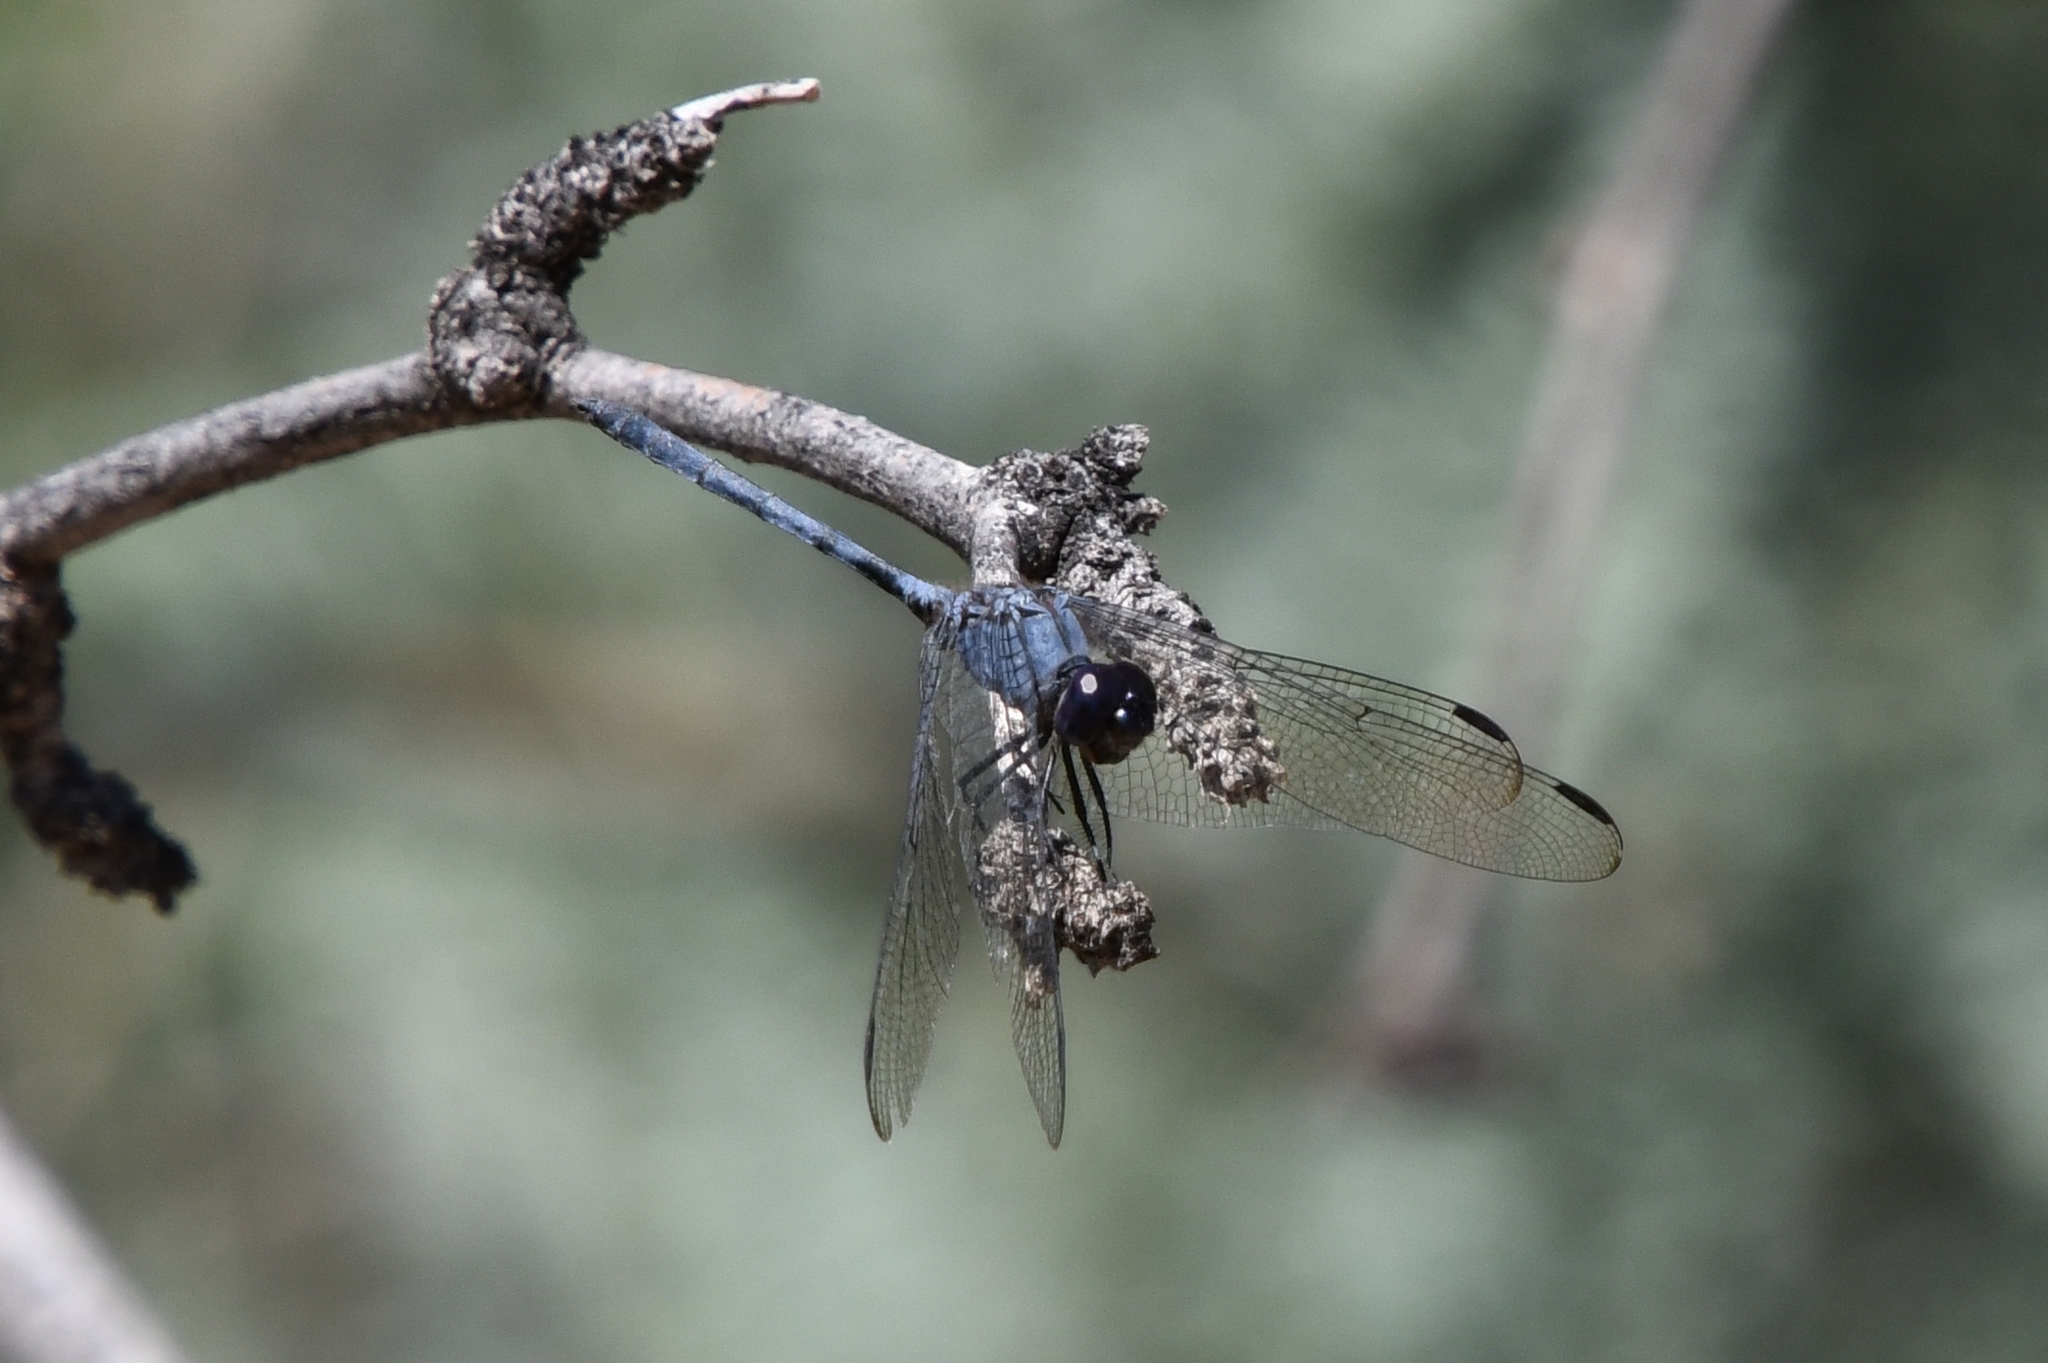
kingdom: Animalia
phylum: Arthropoda
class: Insecta
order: Odonata
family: Libellulidae
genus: Dythemis
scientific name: Dythemis nigrescens
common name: Black setwing
